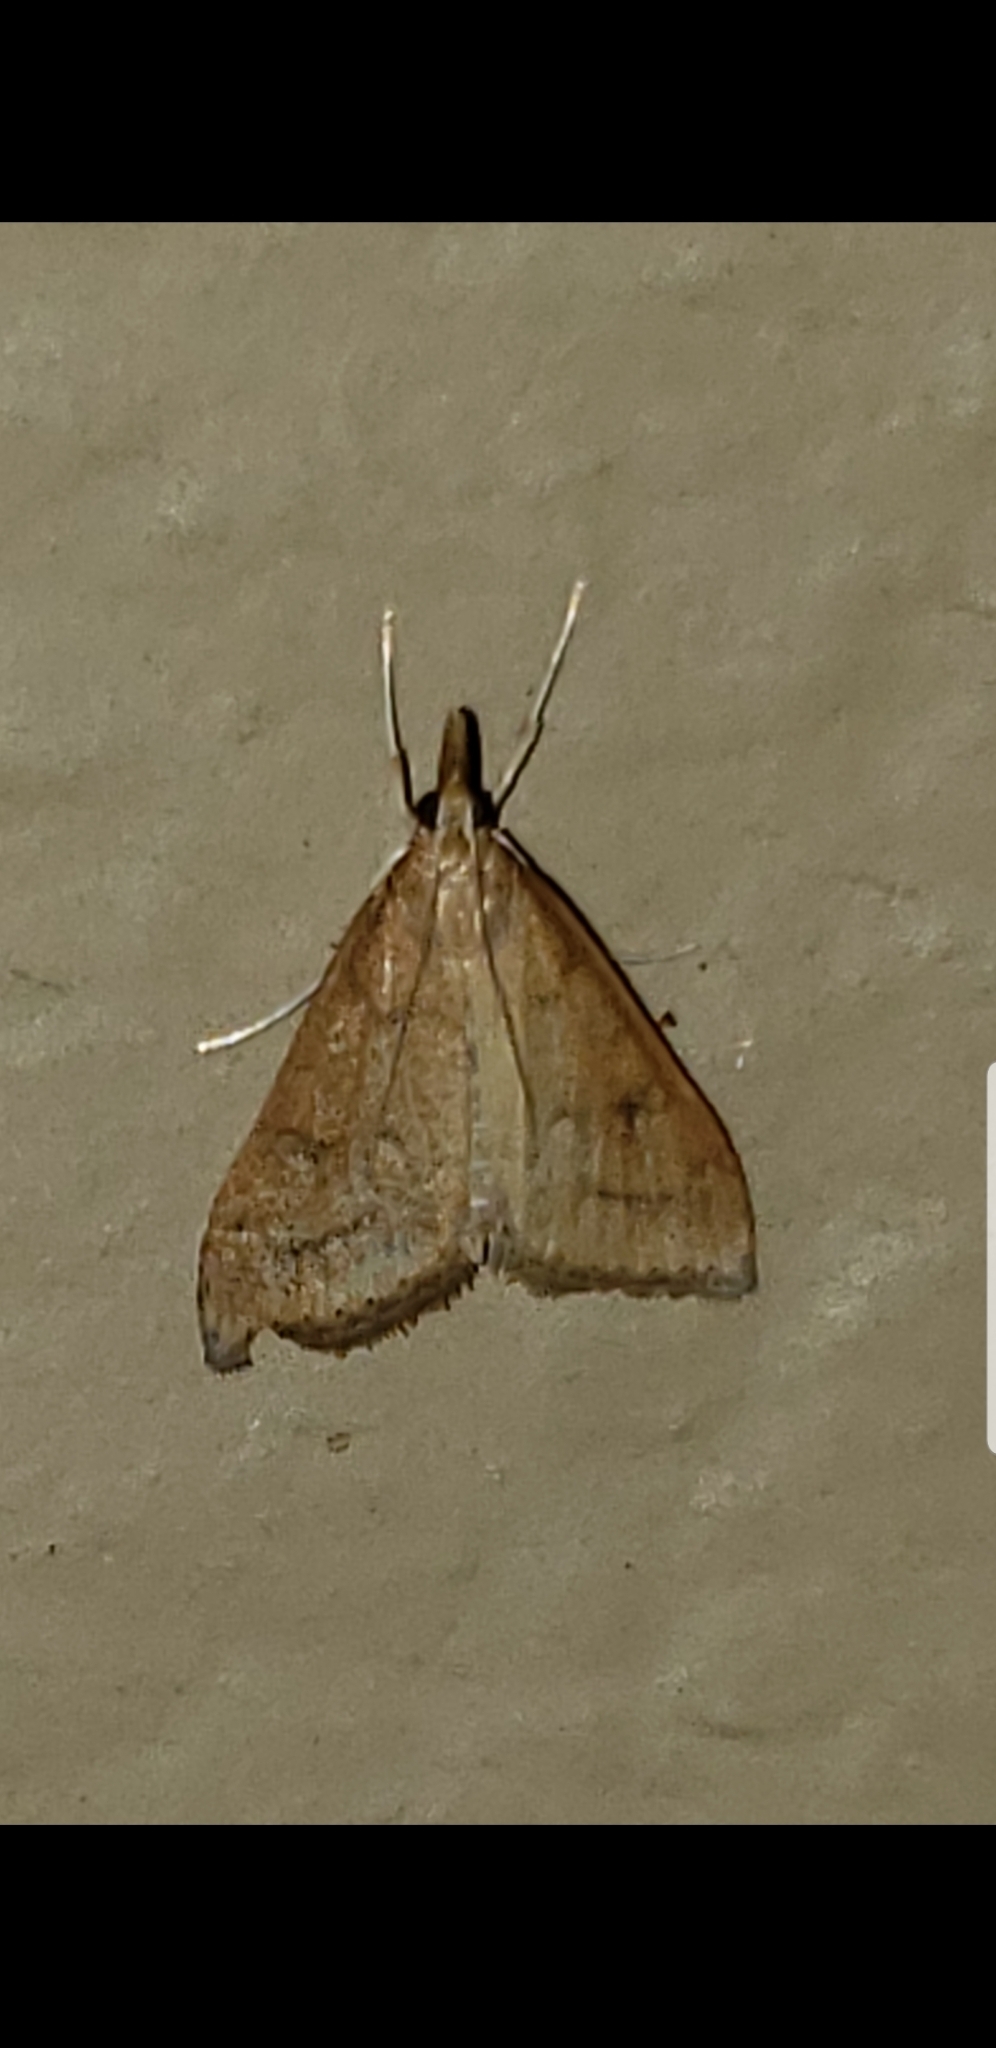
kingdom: Animalia
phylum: Arthropoda
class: Insecta
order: Lepidoptera
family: Crambidae
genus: Udea
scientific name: Udea rubigalis
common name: Celery leaftier moth
